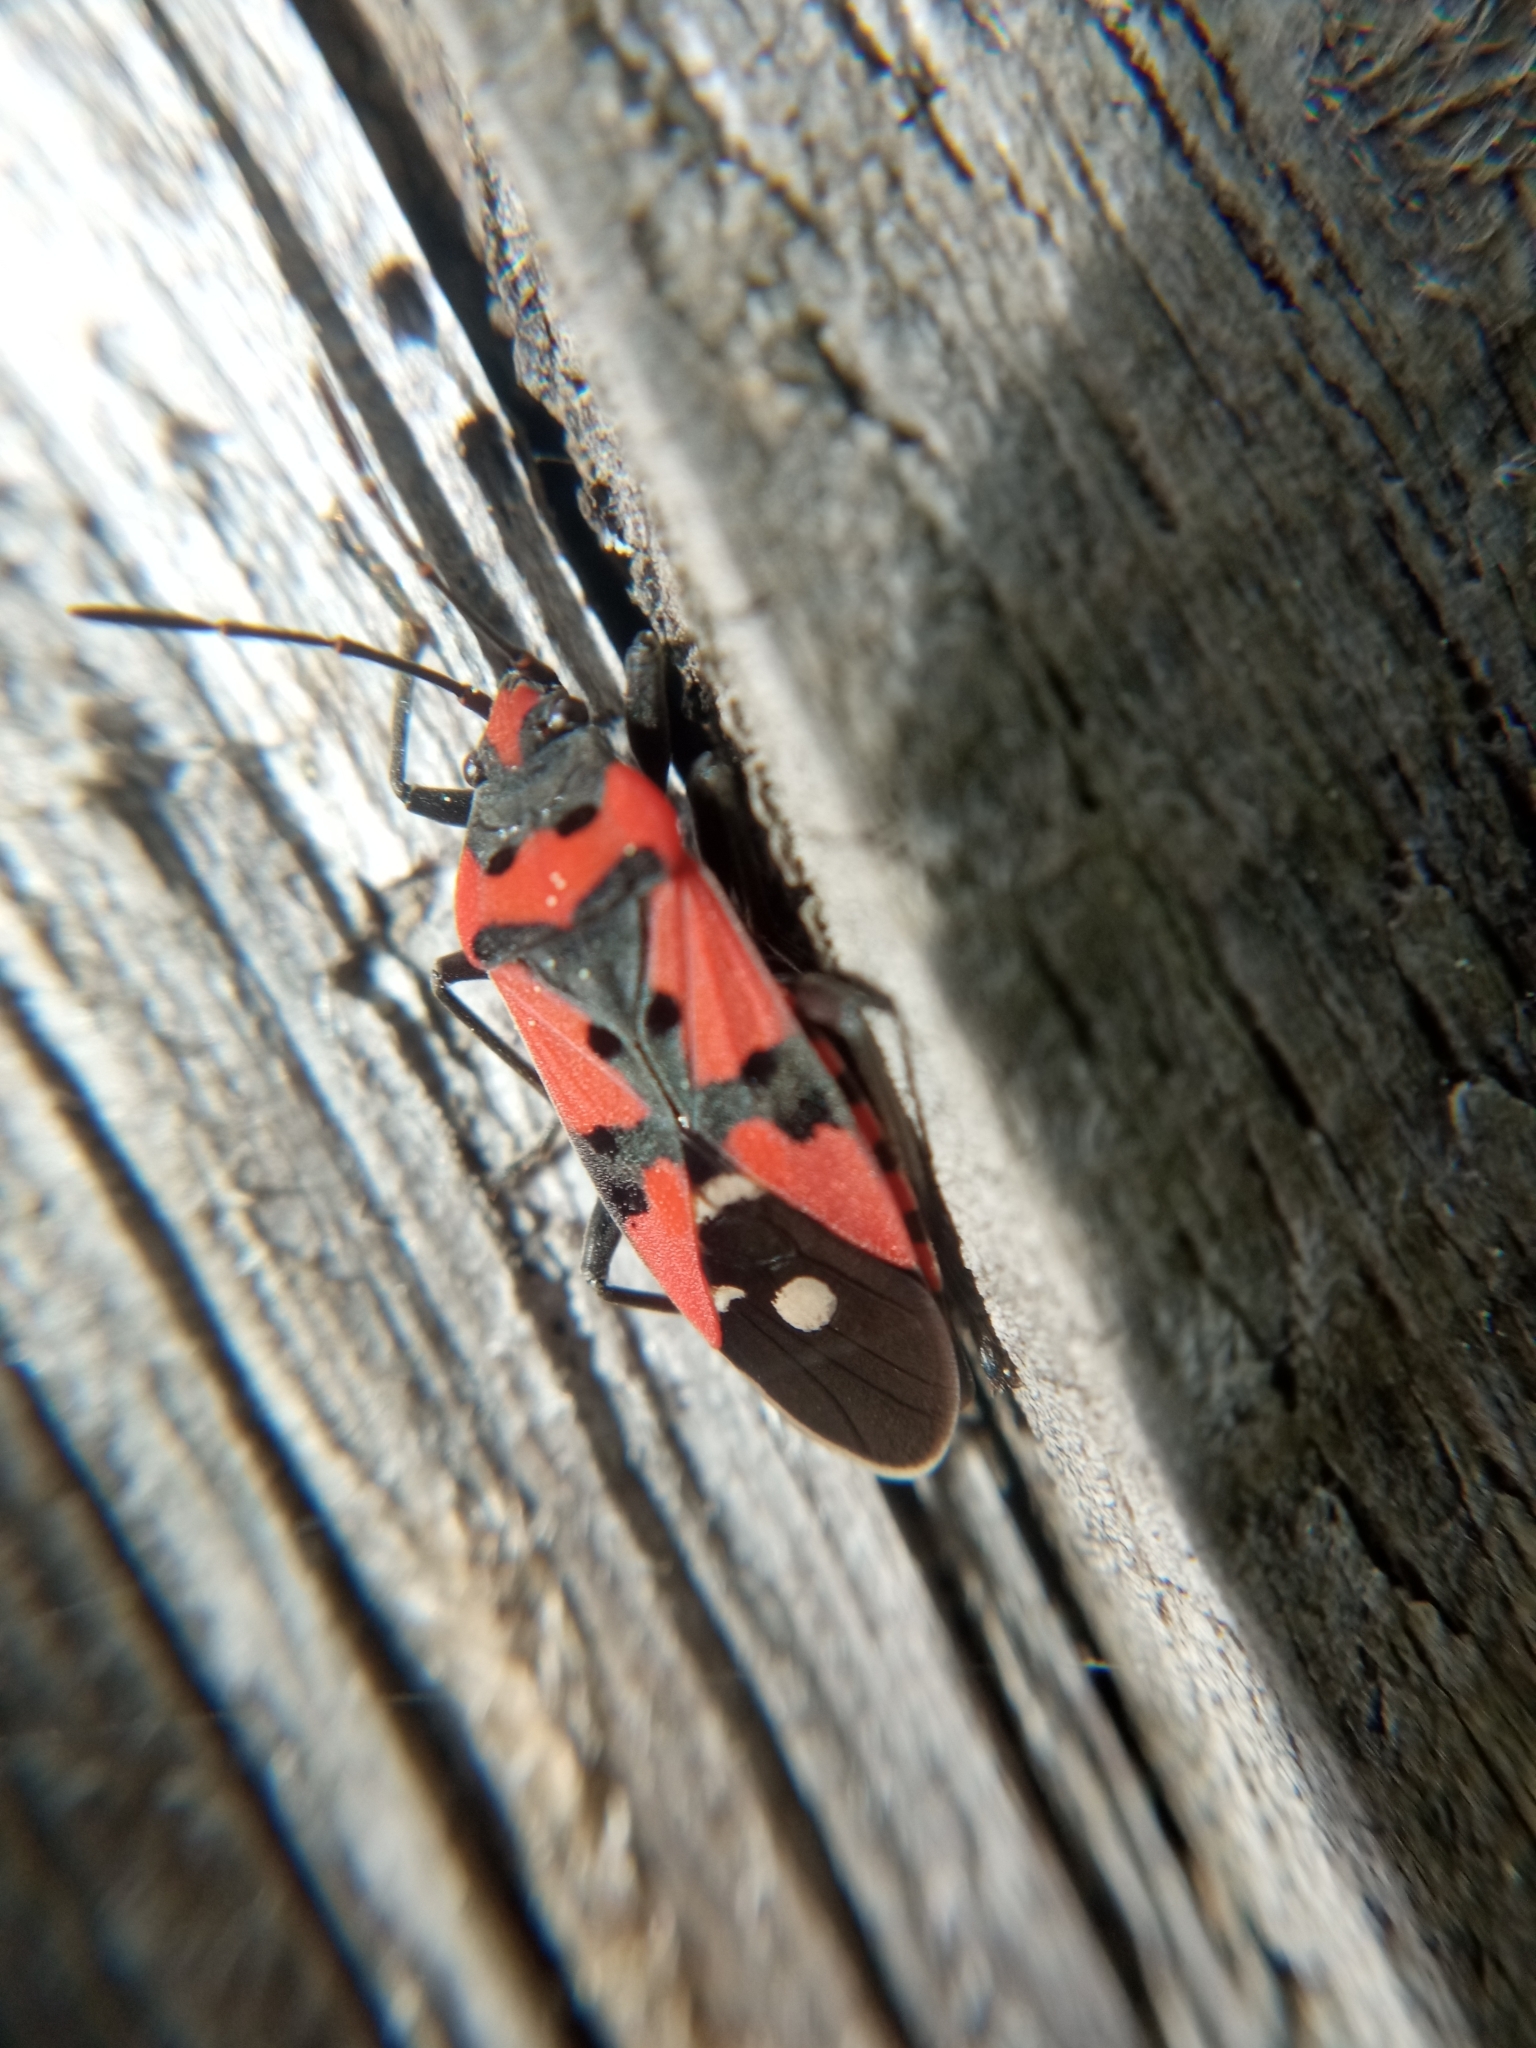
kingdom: Animalia
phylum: Arthropoda
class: Insecta
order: Hemiptera
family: Lygaeidae
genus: Lygaeus
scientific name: Lygaeus equestris
